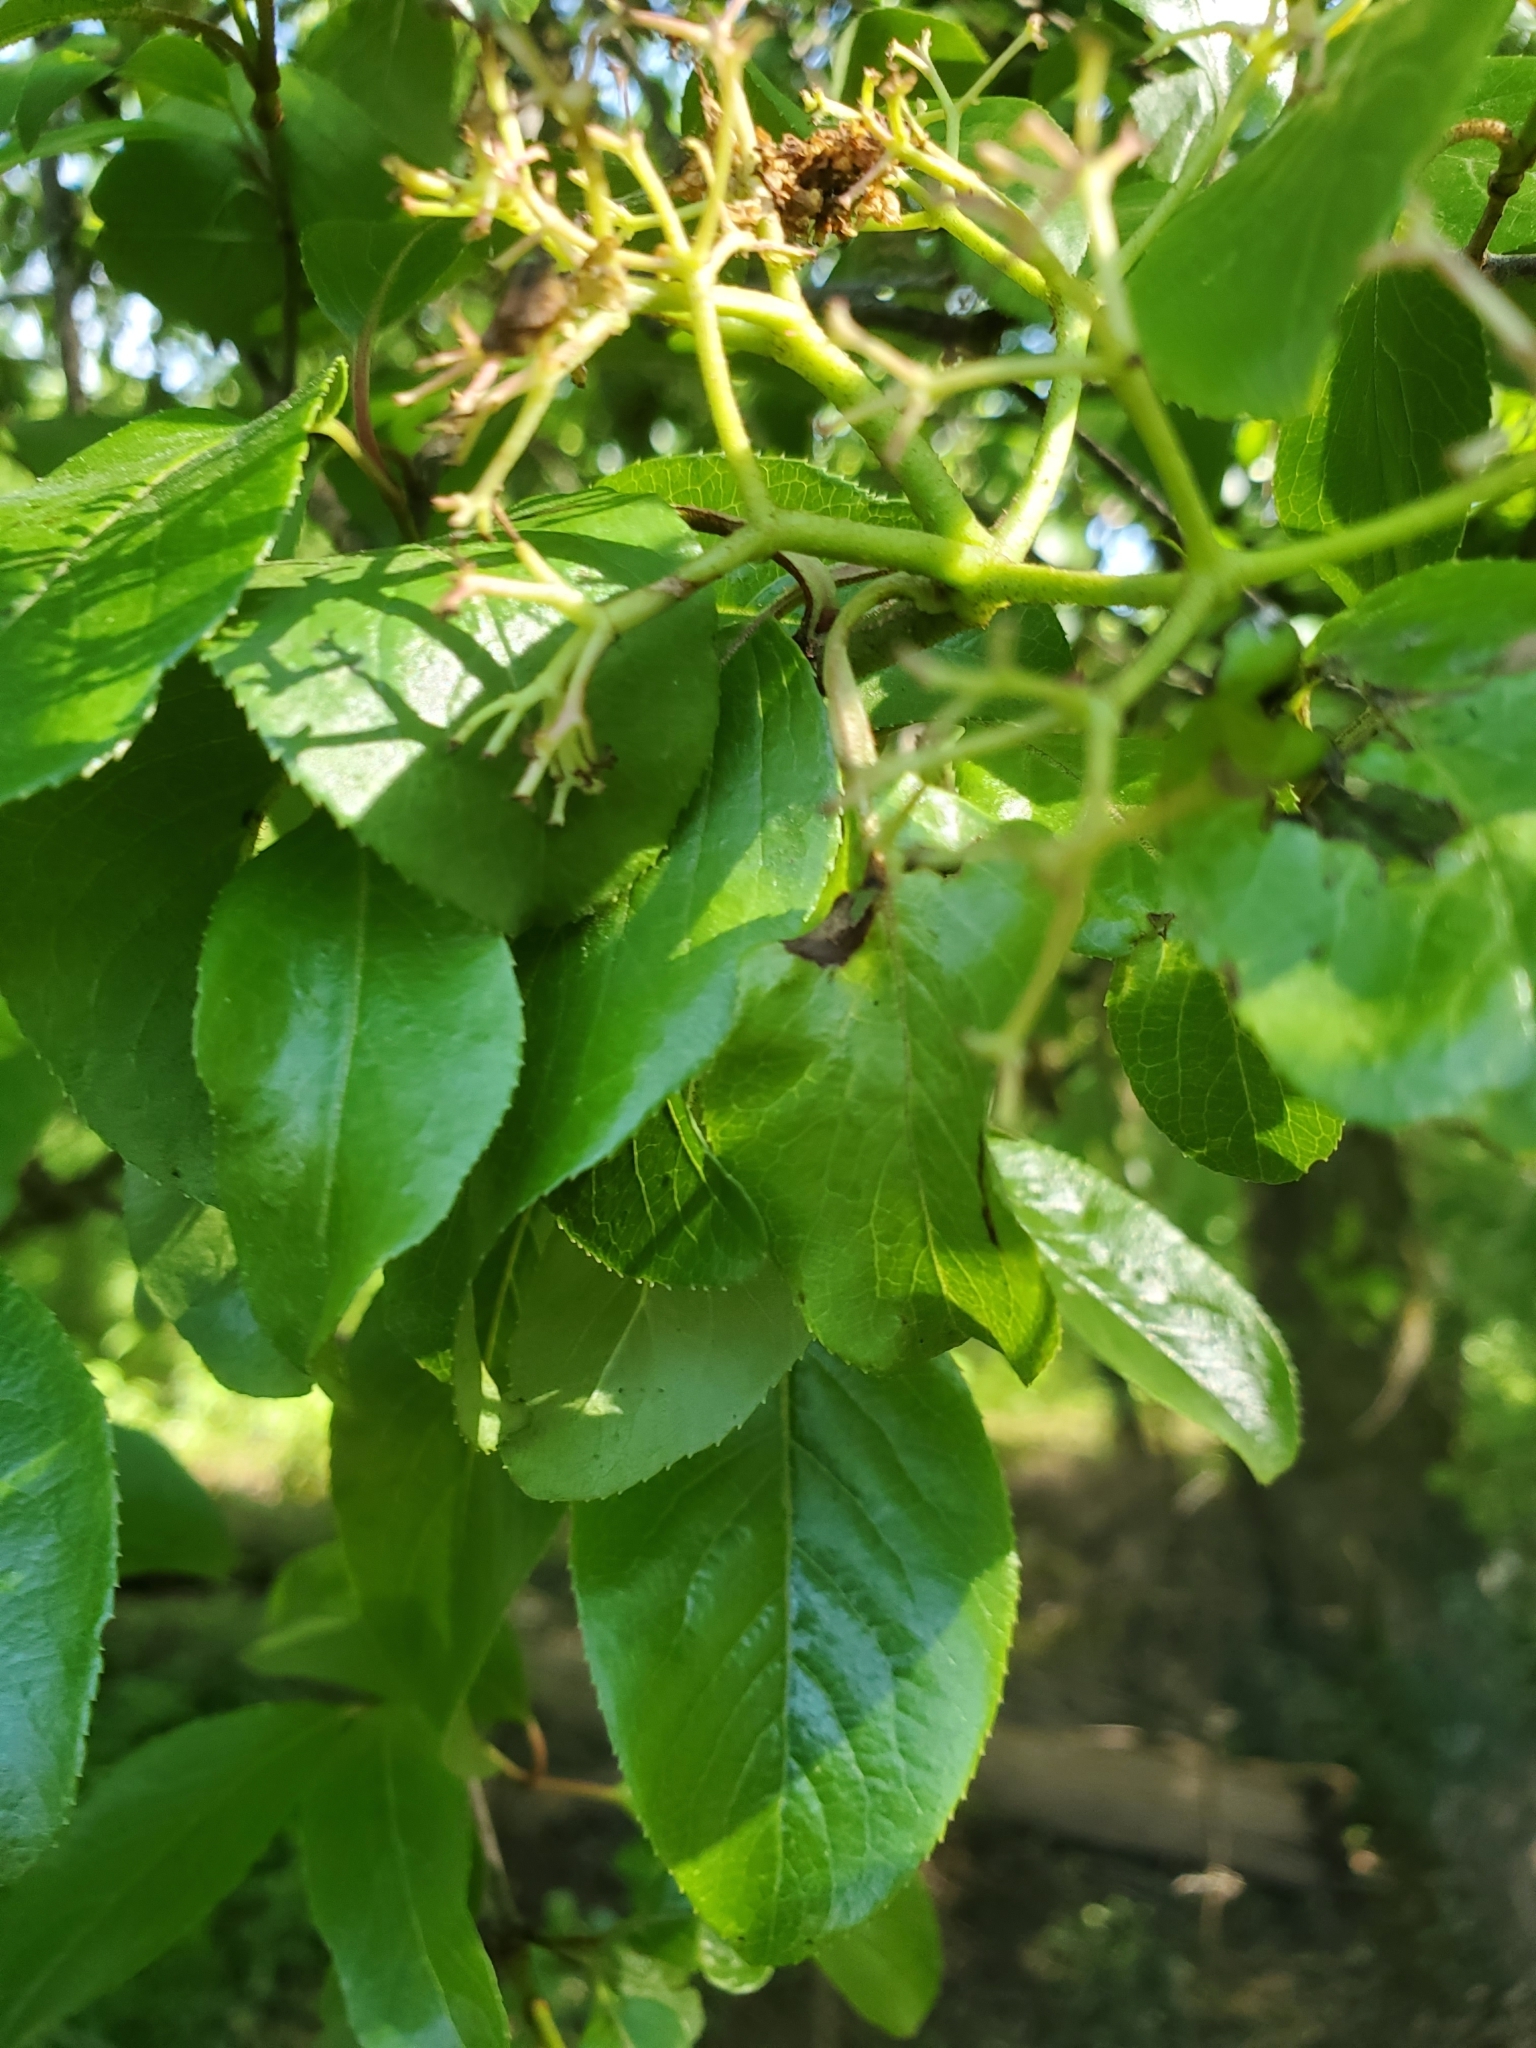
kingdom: Plantae
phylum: Tracheophyta
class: Magnoliopsida
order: Dipsacales
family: Viburnaceae
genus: Viburnum
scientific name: Viburnum rufidulum
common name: Blue haw
